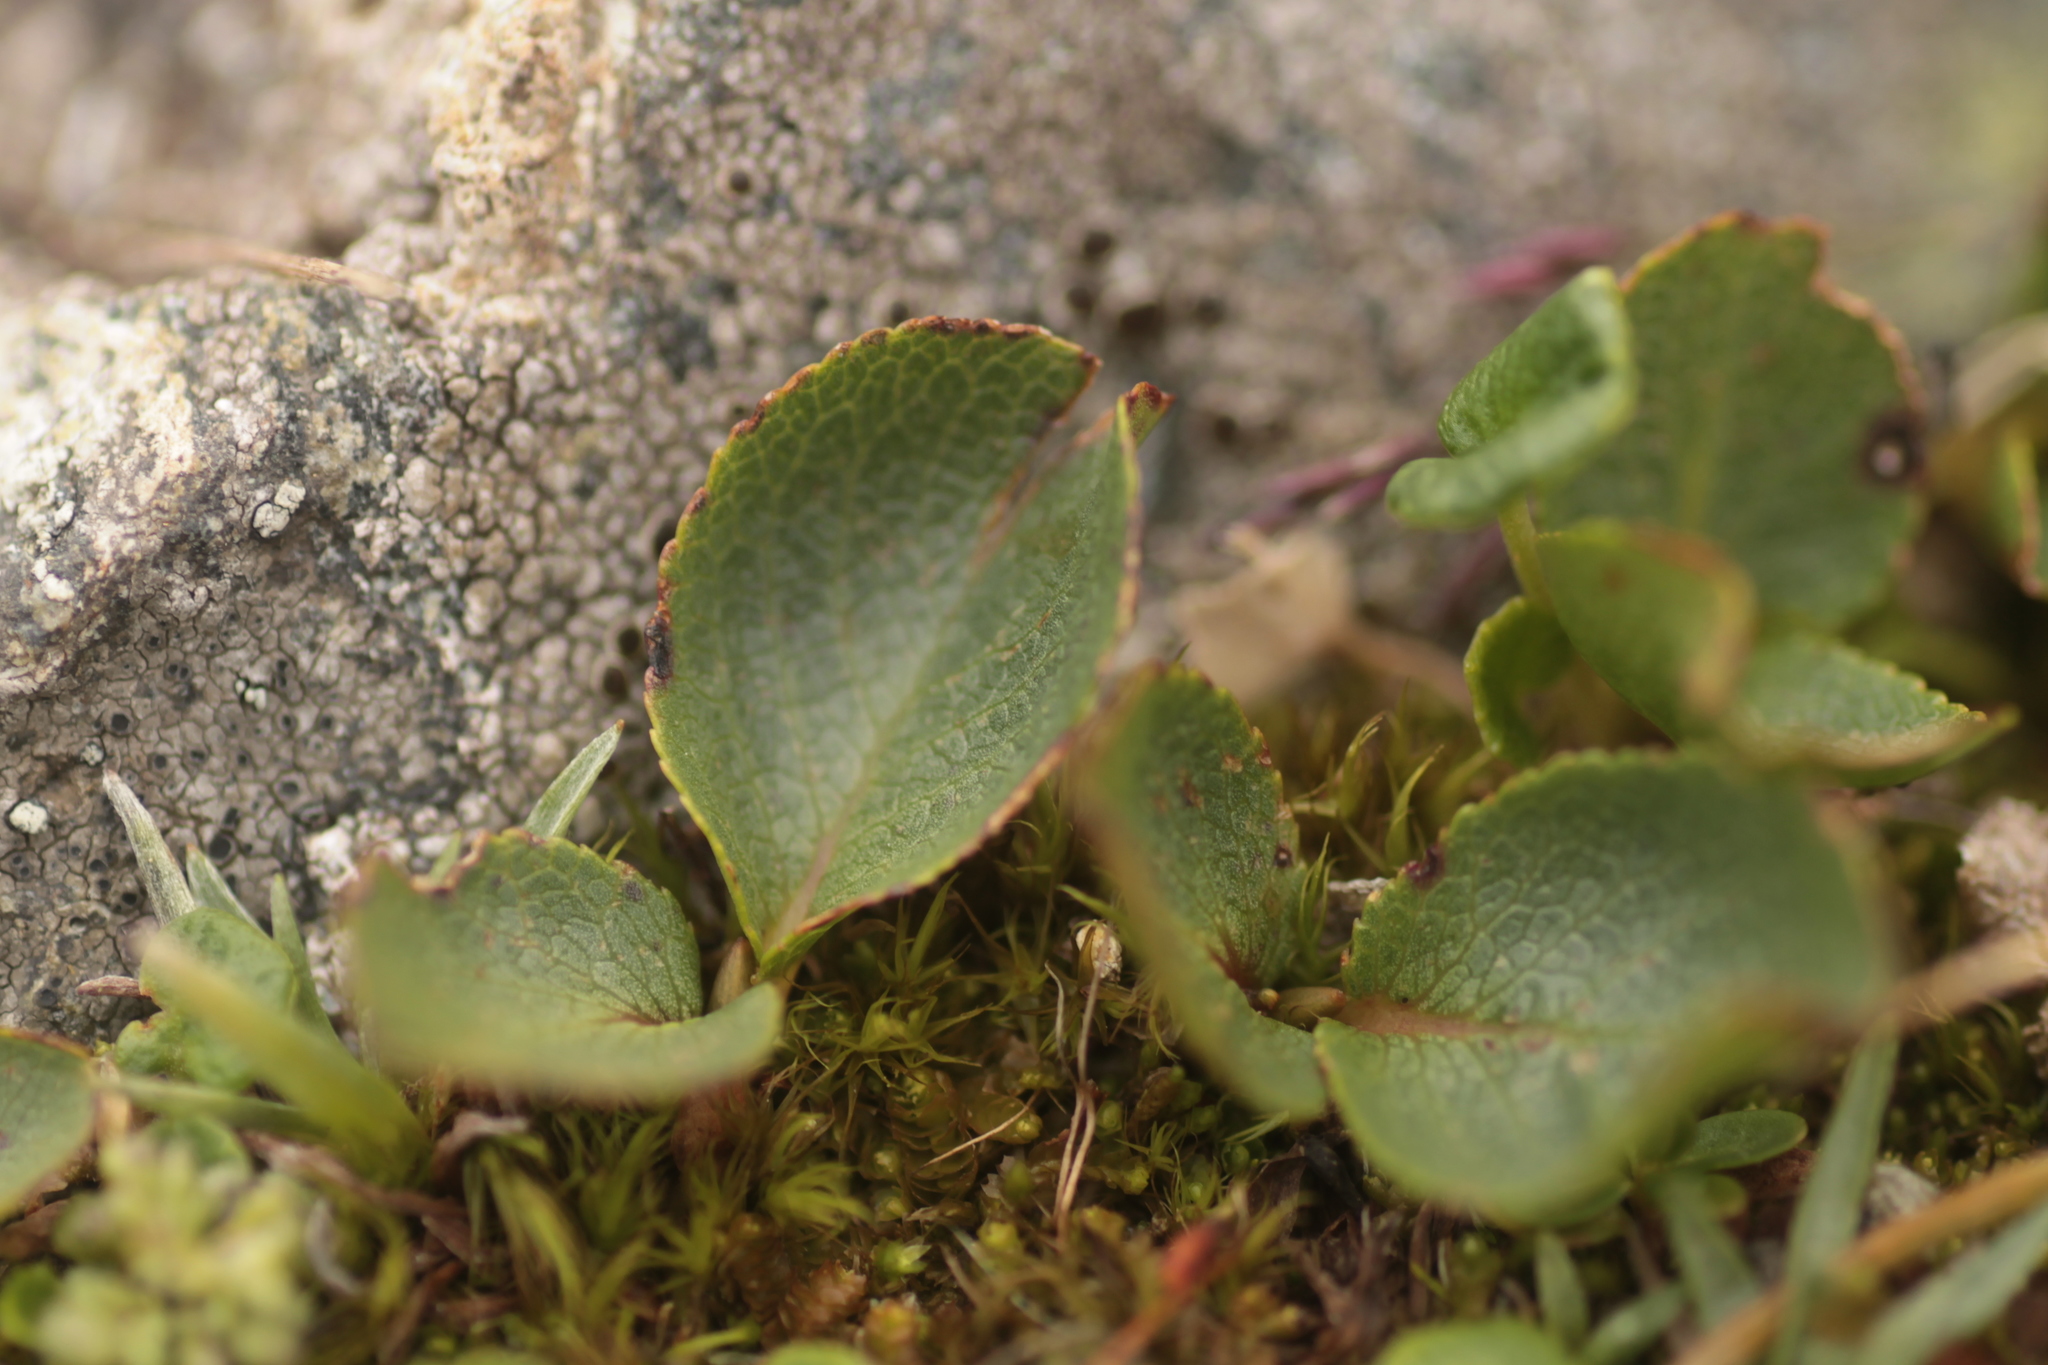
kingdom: Plantae
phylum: Tracheophyta
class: Magnoliopsida
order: Malpighiales
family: Salicaceae
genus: Salix
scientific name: Salix herbacea
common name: Dwarf willow
